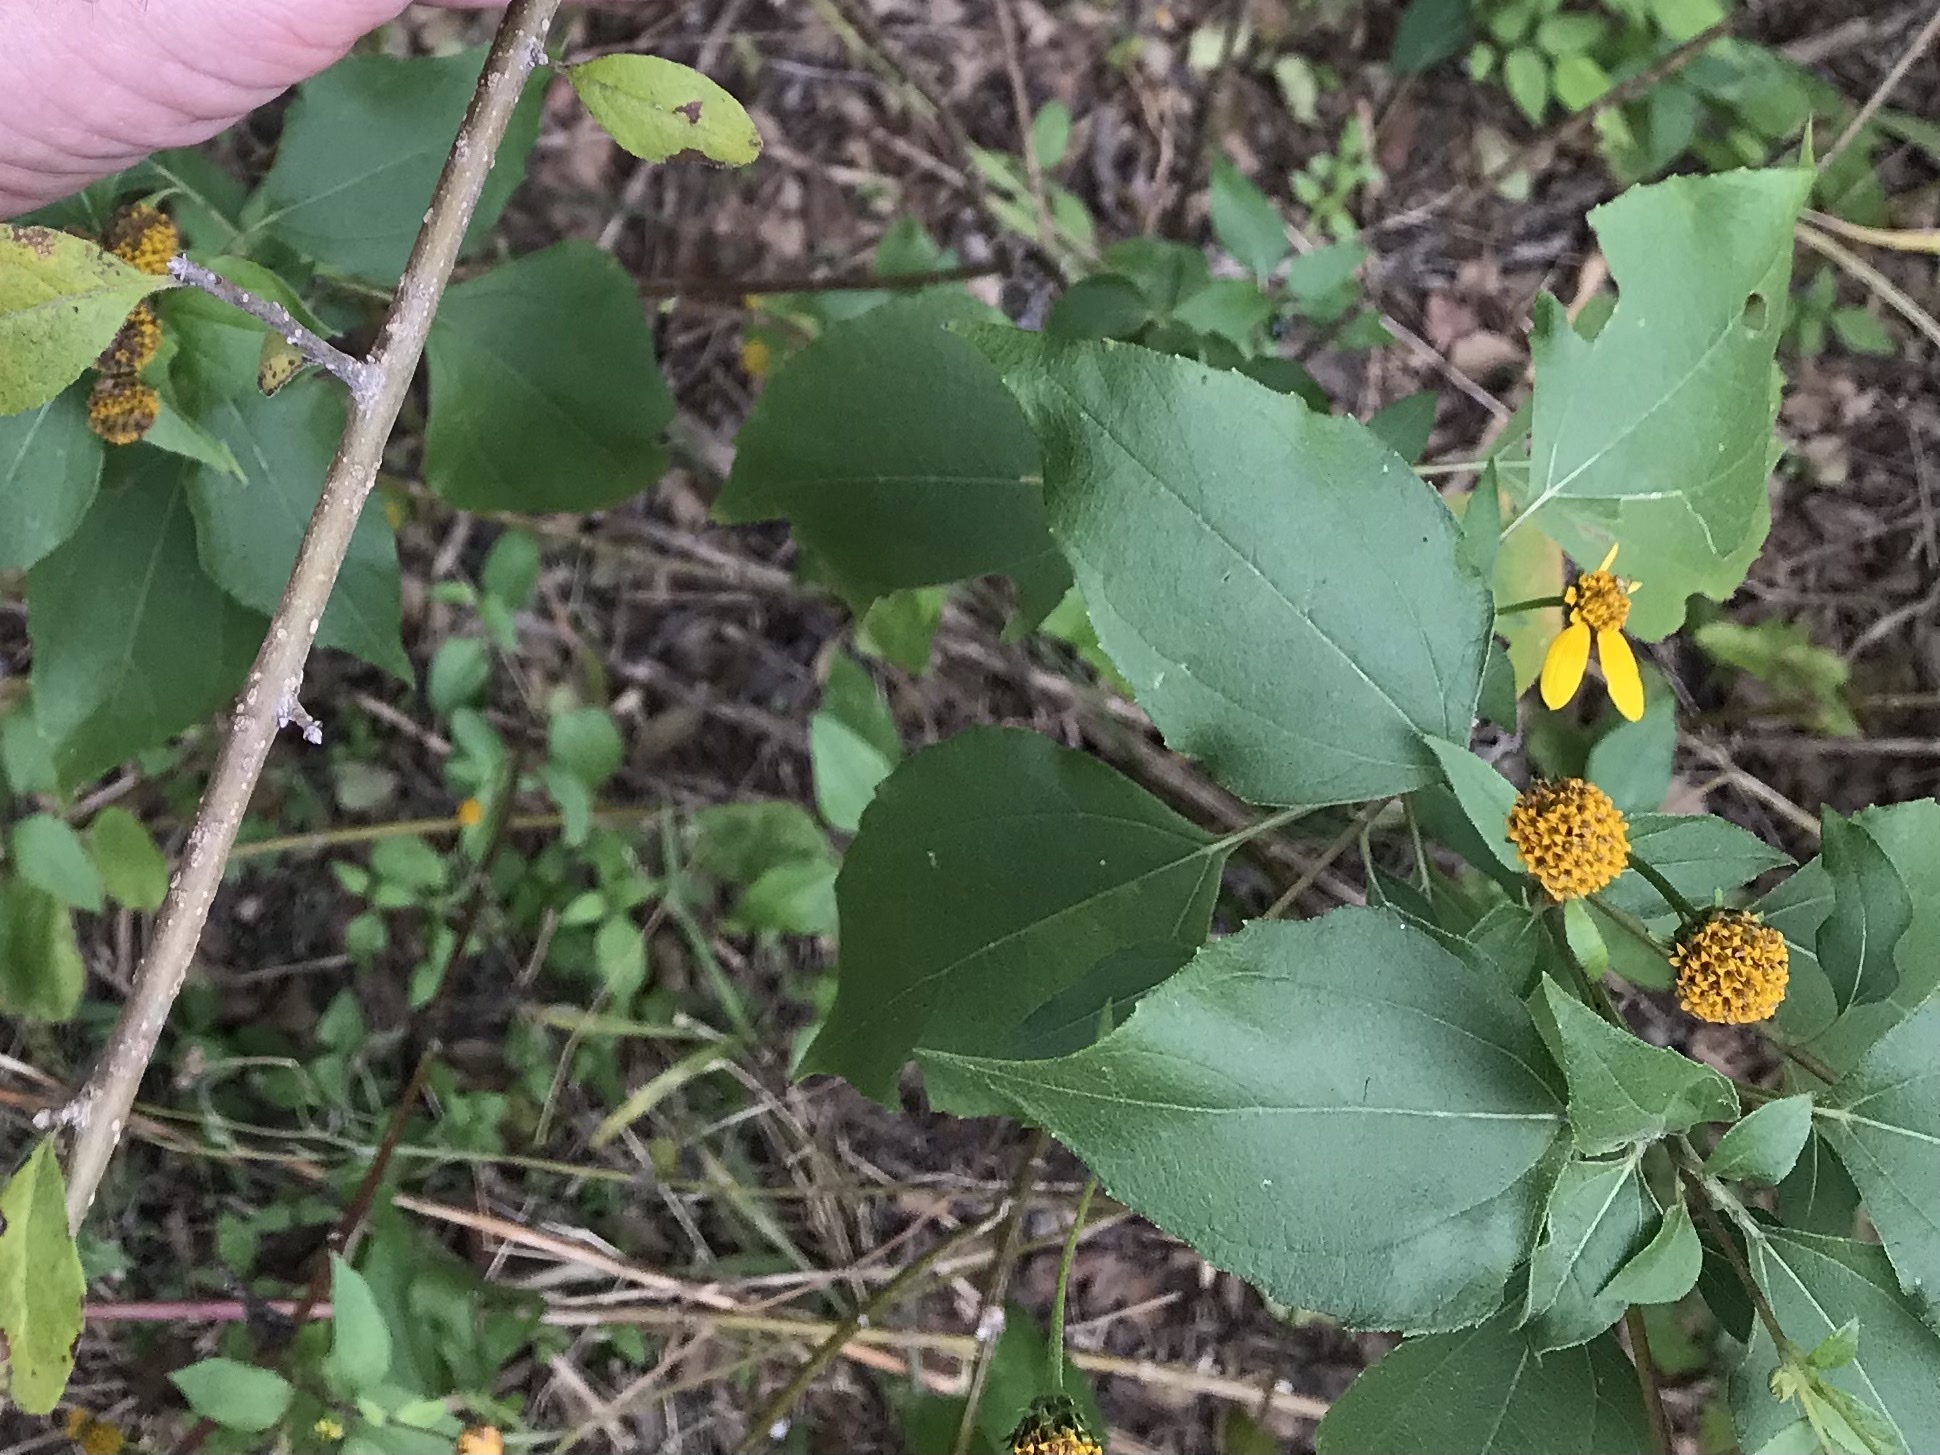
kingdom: Plantae
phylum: Tracheophyta
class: Magnoliopsida
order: Asterales
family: Asteraceae
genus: Viguiera
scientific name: Viguiera dentata
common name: Toothleaf
